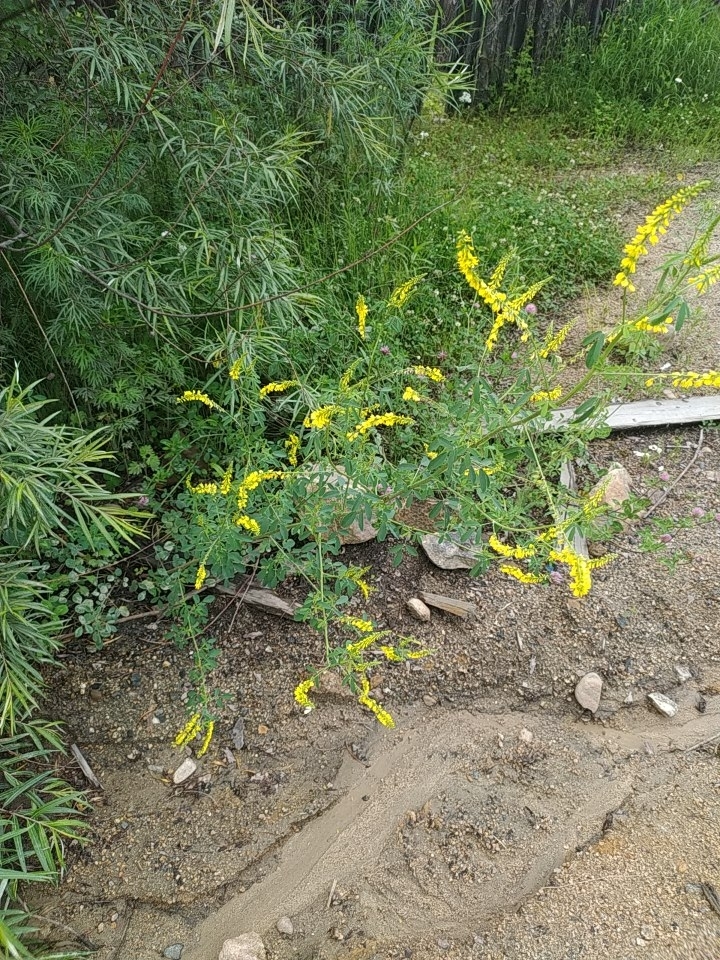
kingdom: Plantae
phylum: Tracheophyta
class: Magnoliopsida
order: Fabales
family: Fabaceae
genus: Melilotus
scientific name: Melilotus officinalis
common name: Sweetclover
